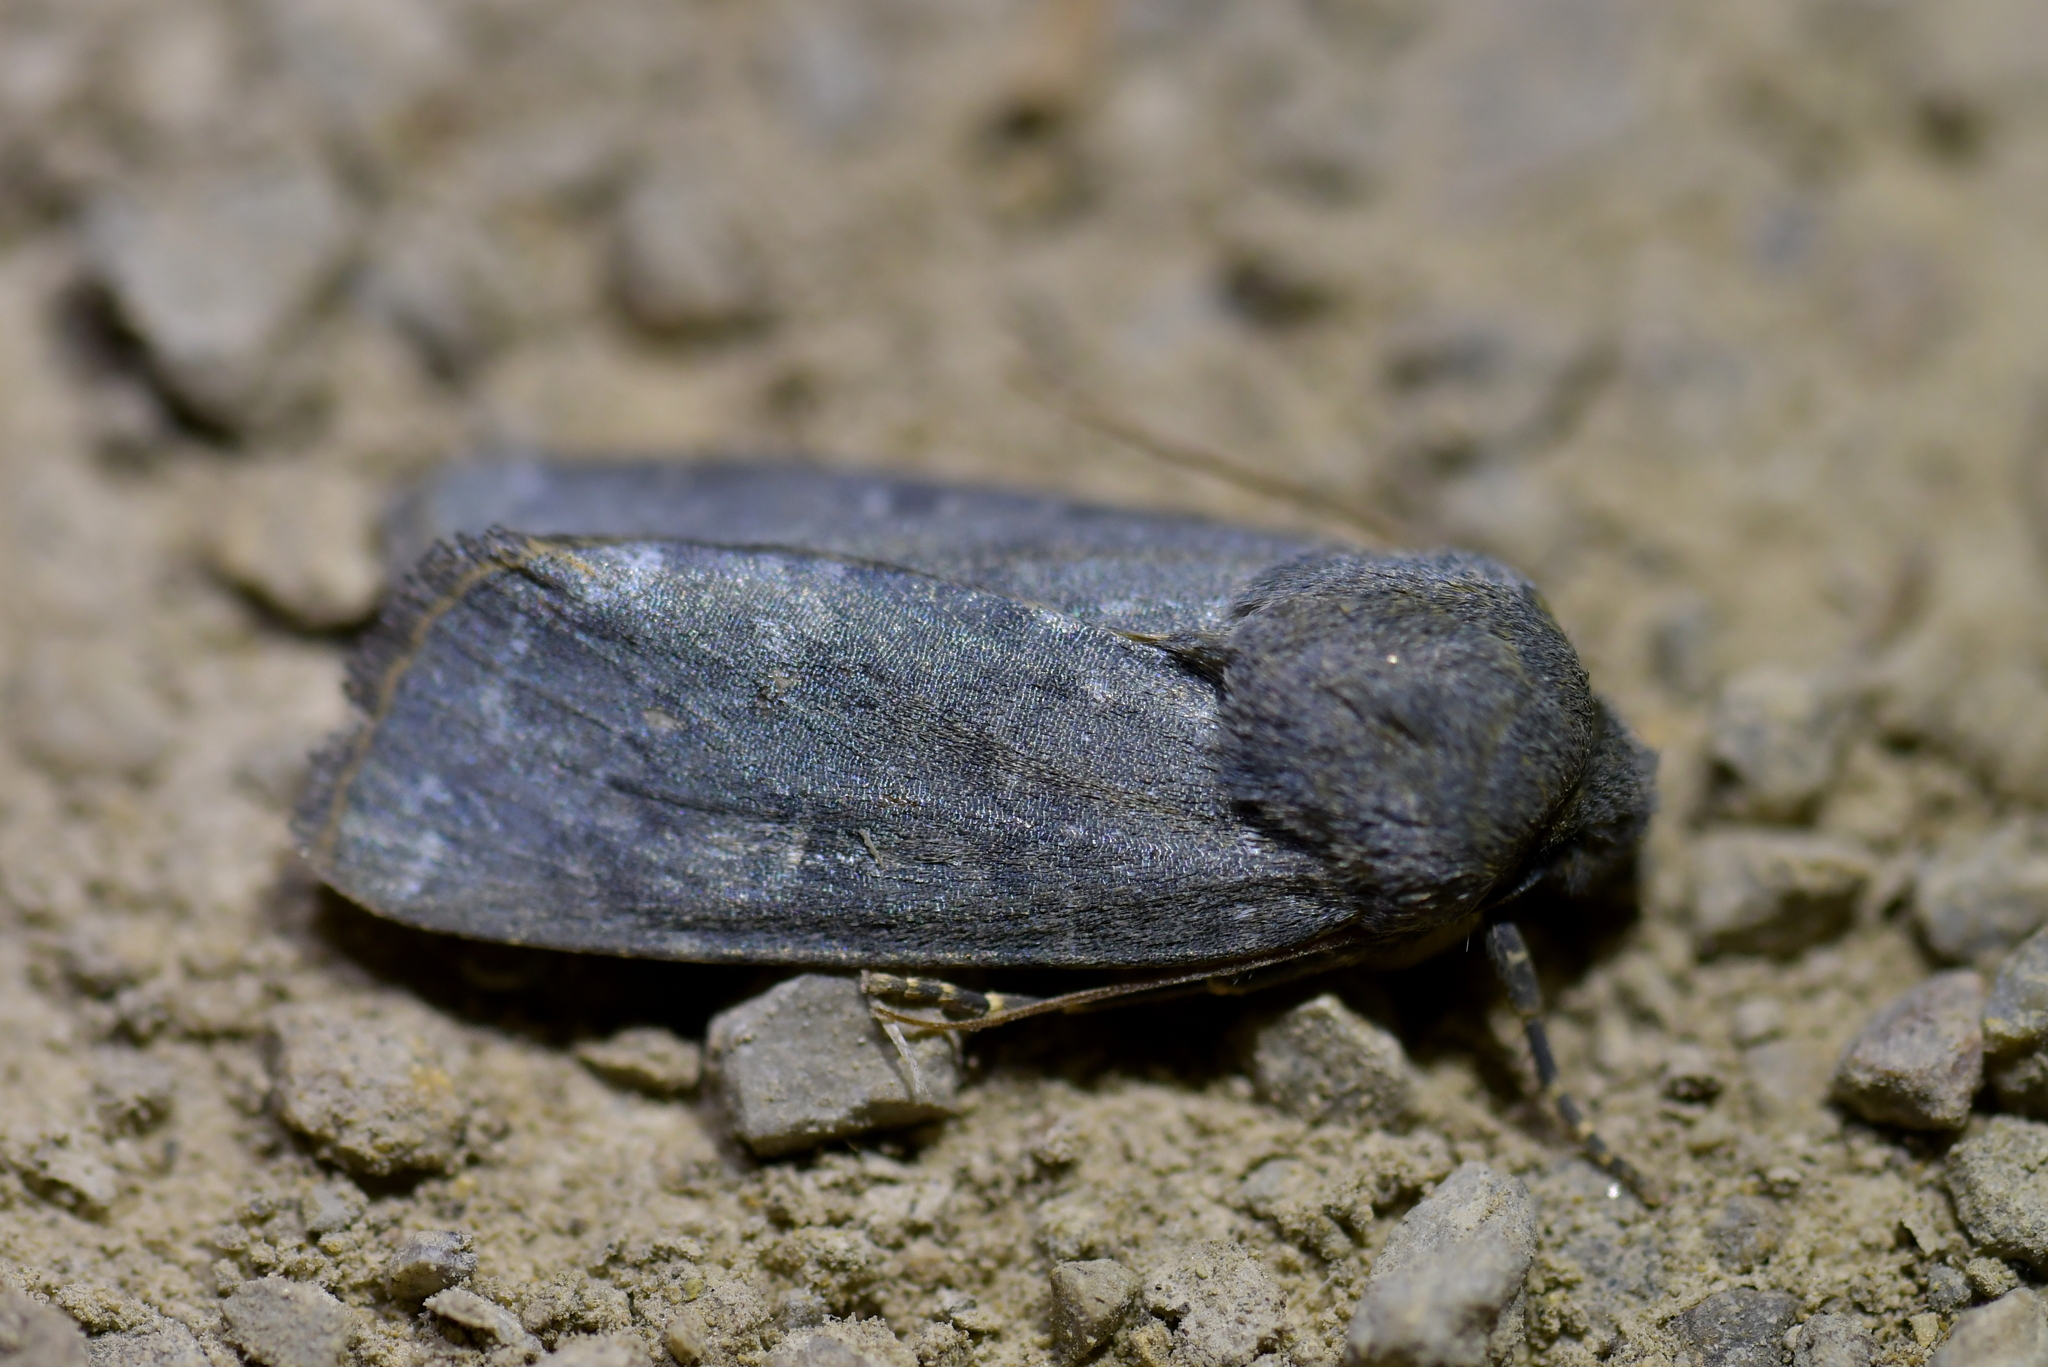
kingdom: Animalia
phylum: Arthropoda
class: Insecta
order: Lepidoptera
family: Noctuidae
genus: Physetica
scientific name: Physetica caerulea
